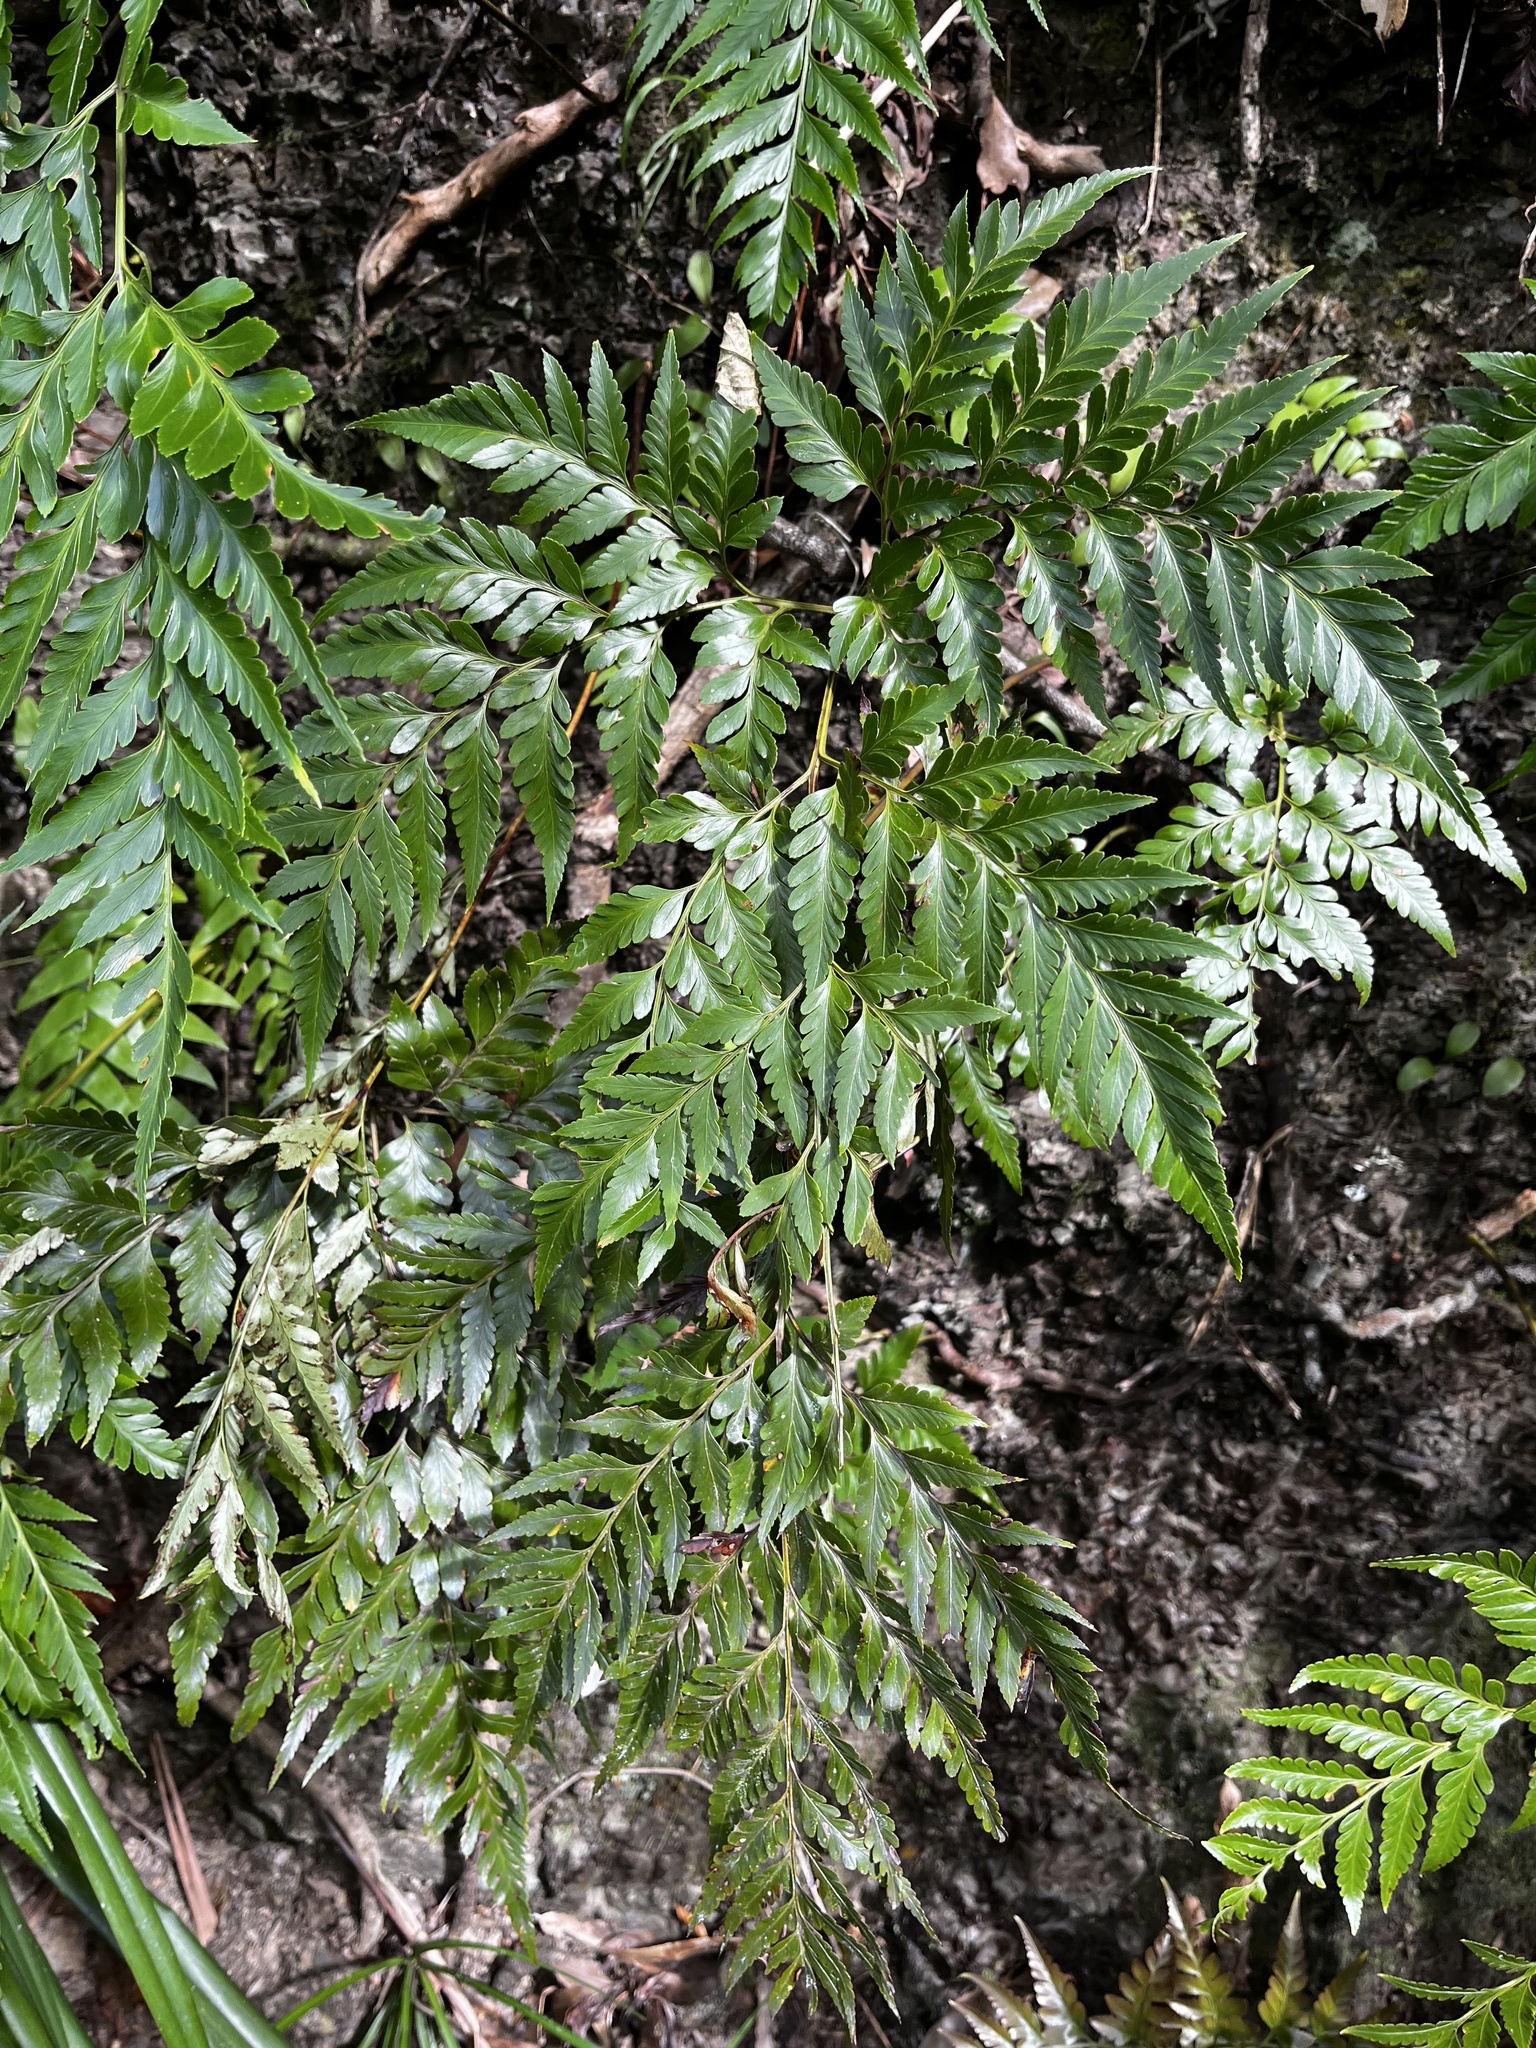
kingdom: Plantae
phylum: Tracheophyta
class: Polypodiopsida
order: Polypodiales
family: Davalliaceae
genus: Davallia
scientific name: Davallia solida
